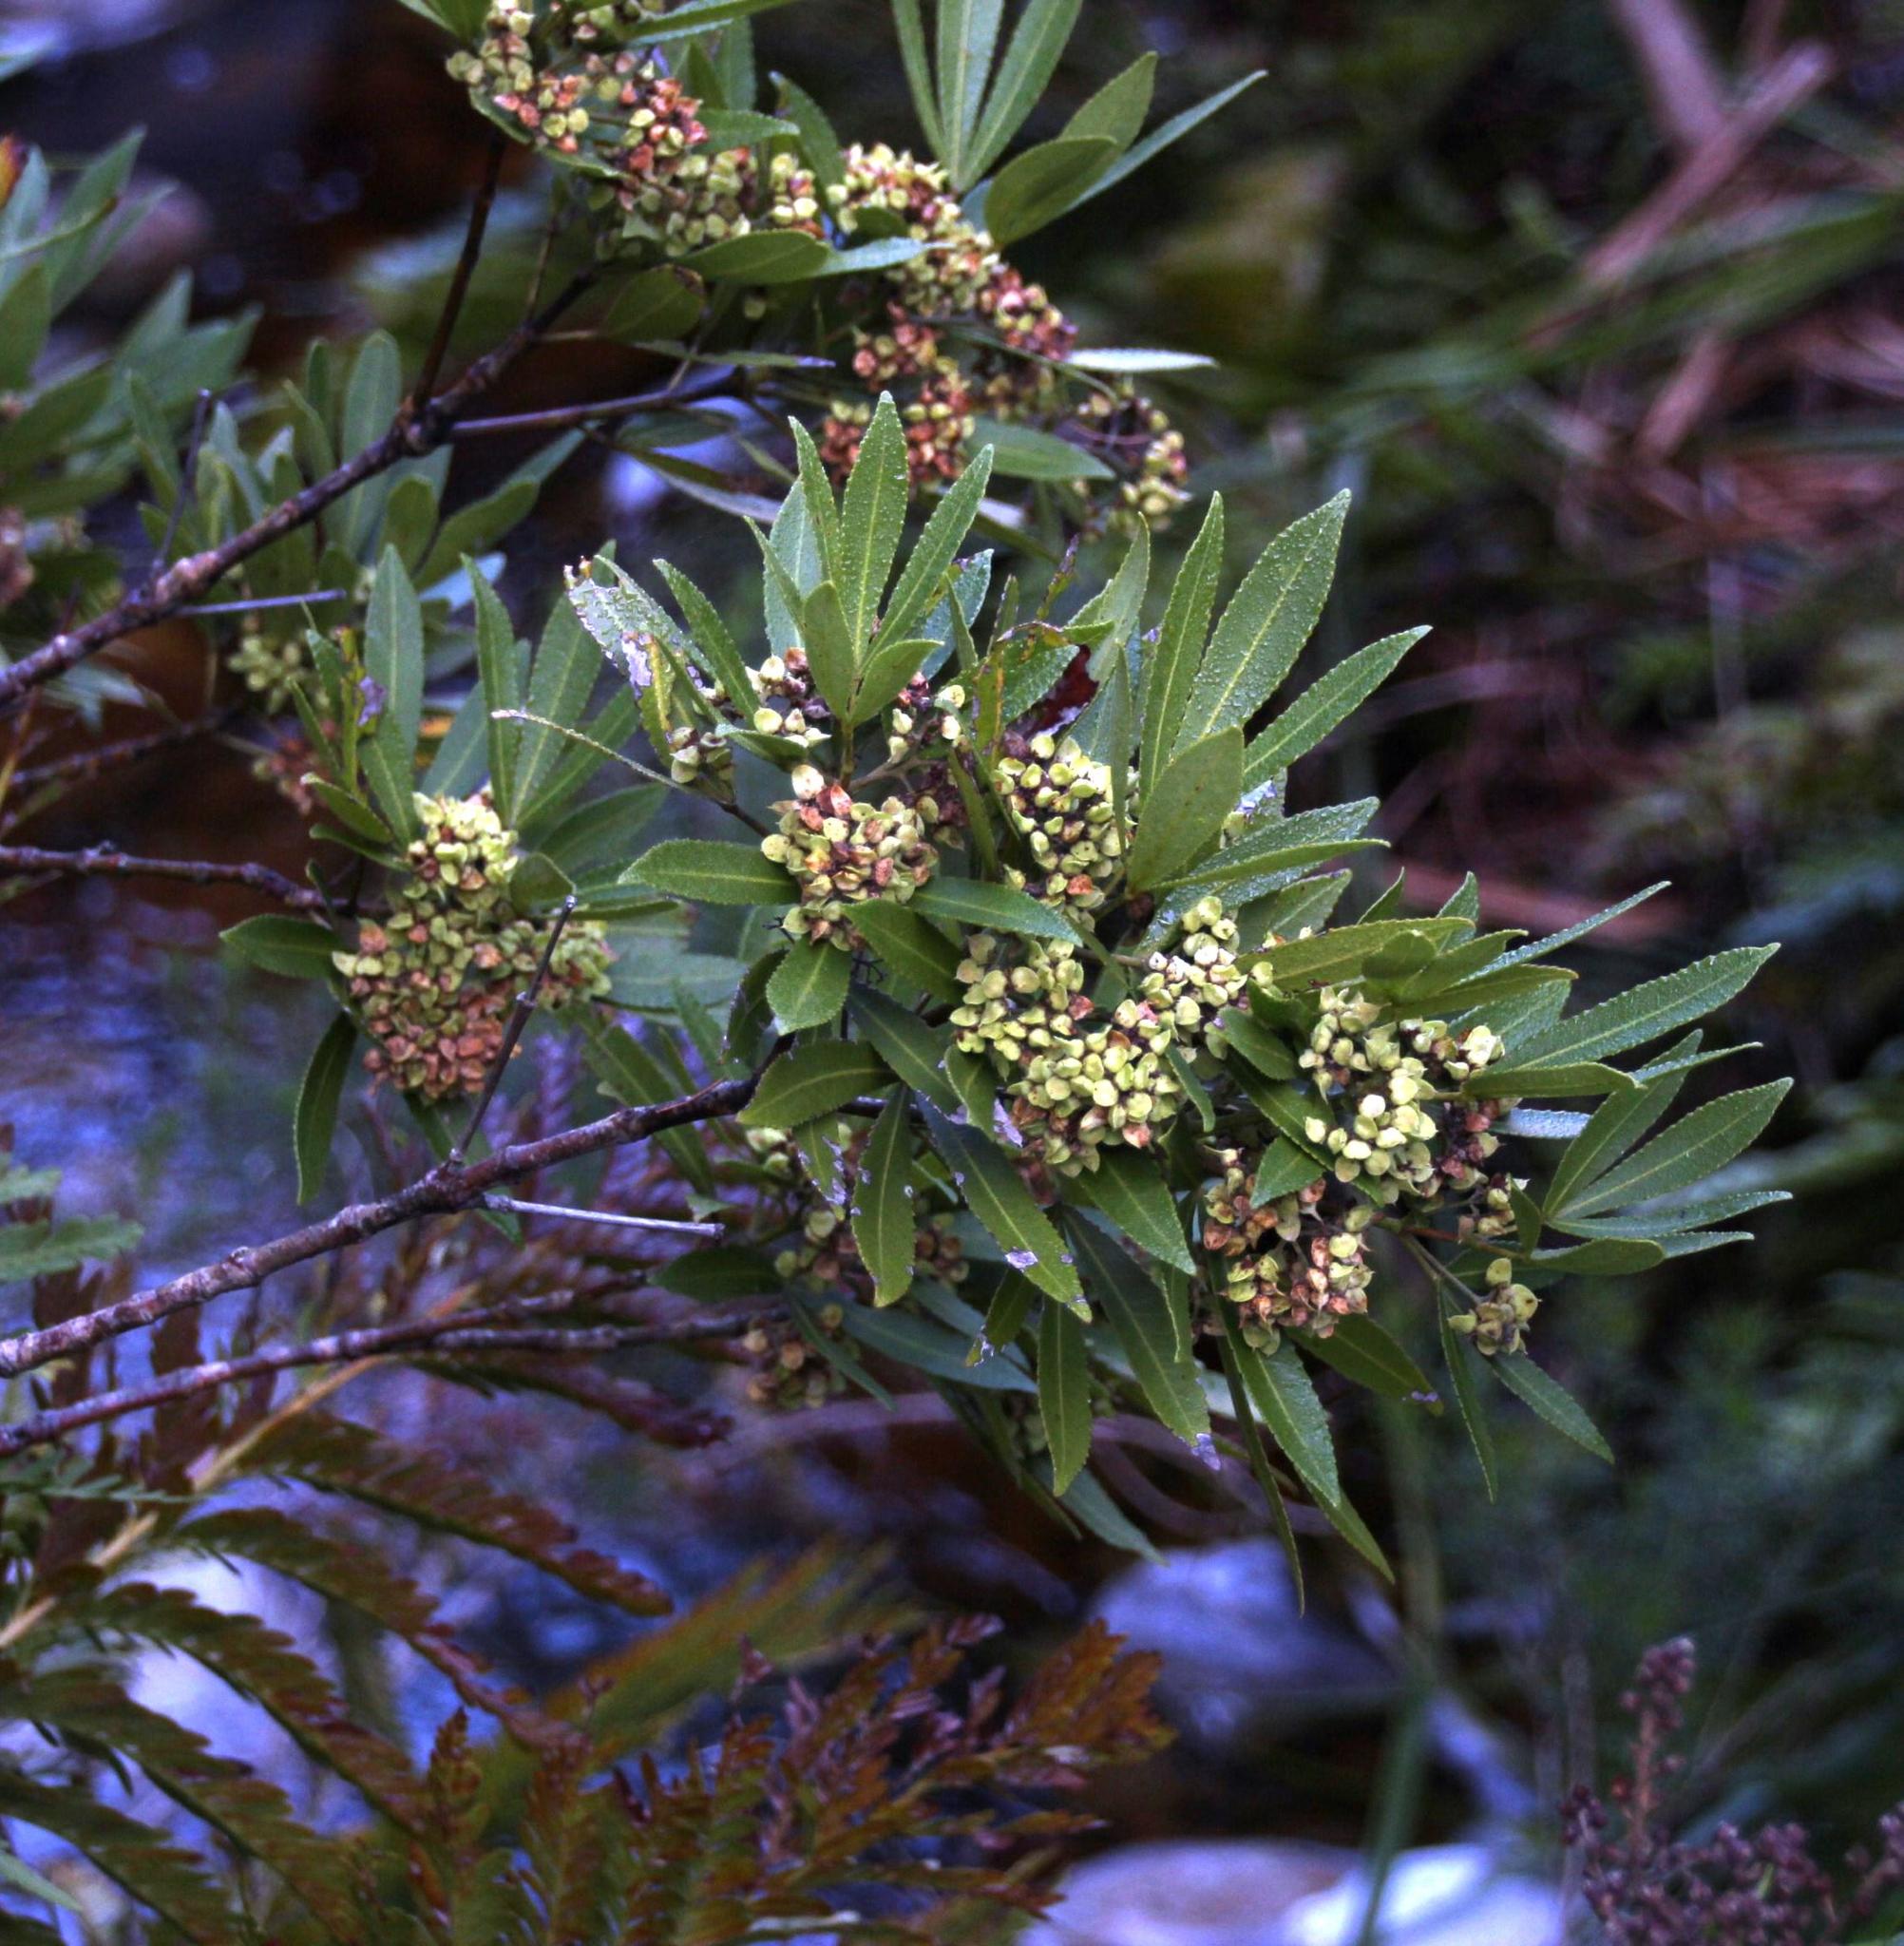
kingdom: Plantae
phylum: Tracheophyta
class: Magnoliopsida
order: Oxalidales
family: Cunoniaceae
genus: Platylophus
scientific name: Platylophus trifoliatus
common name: White alder
